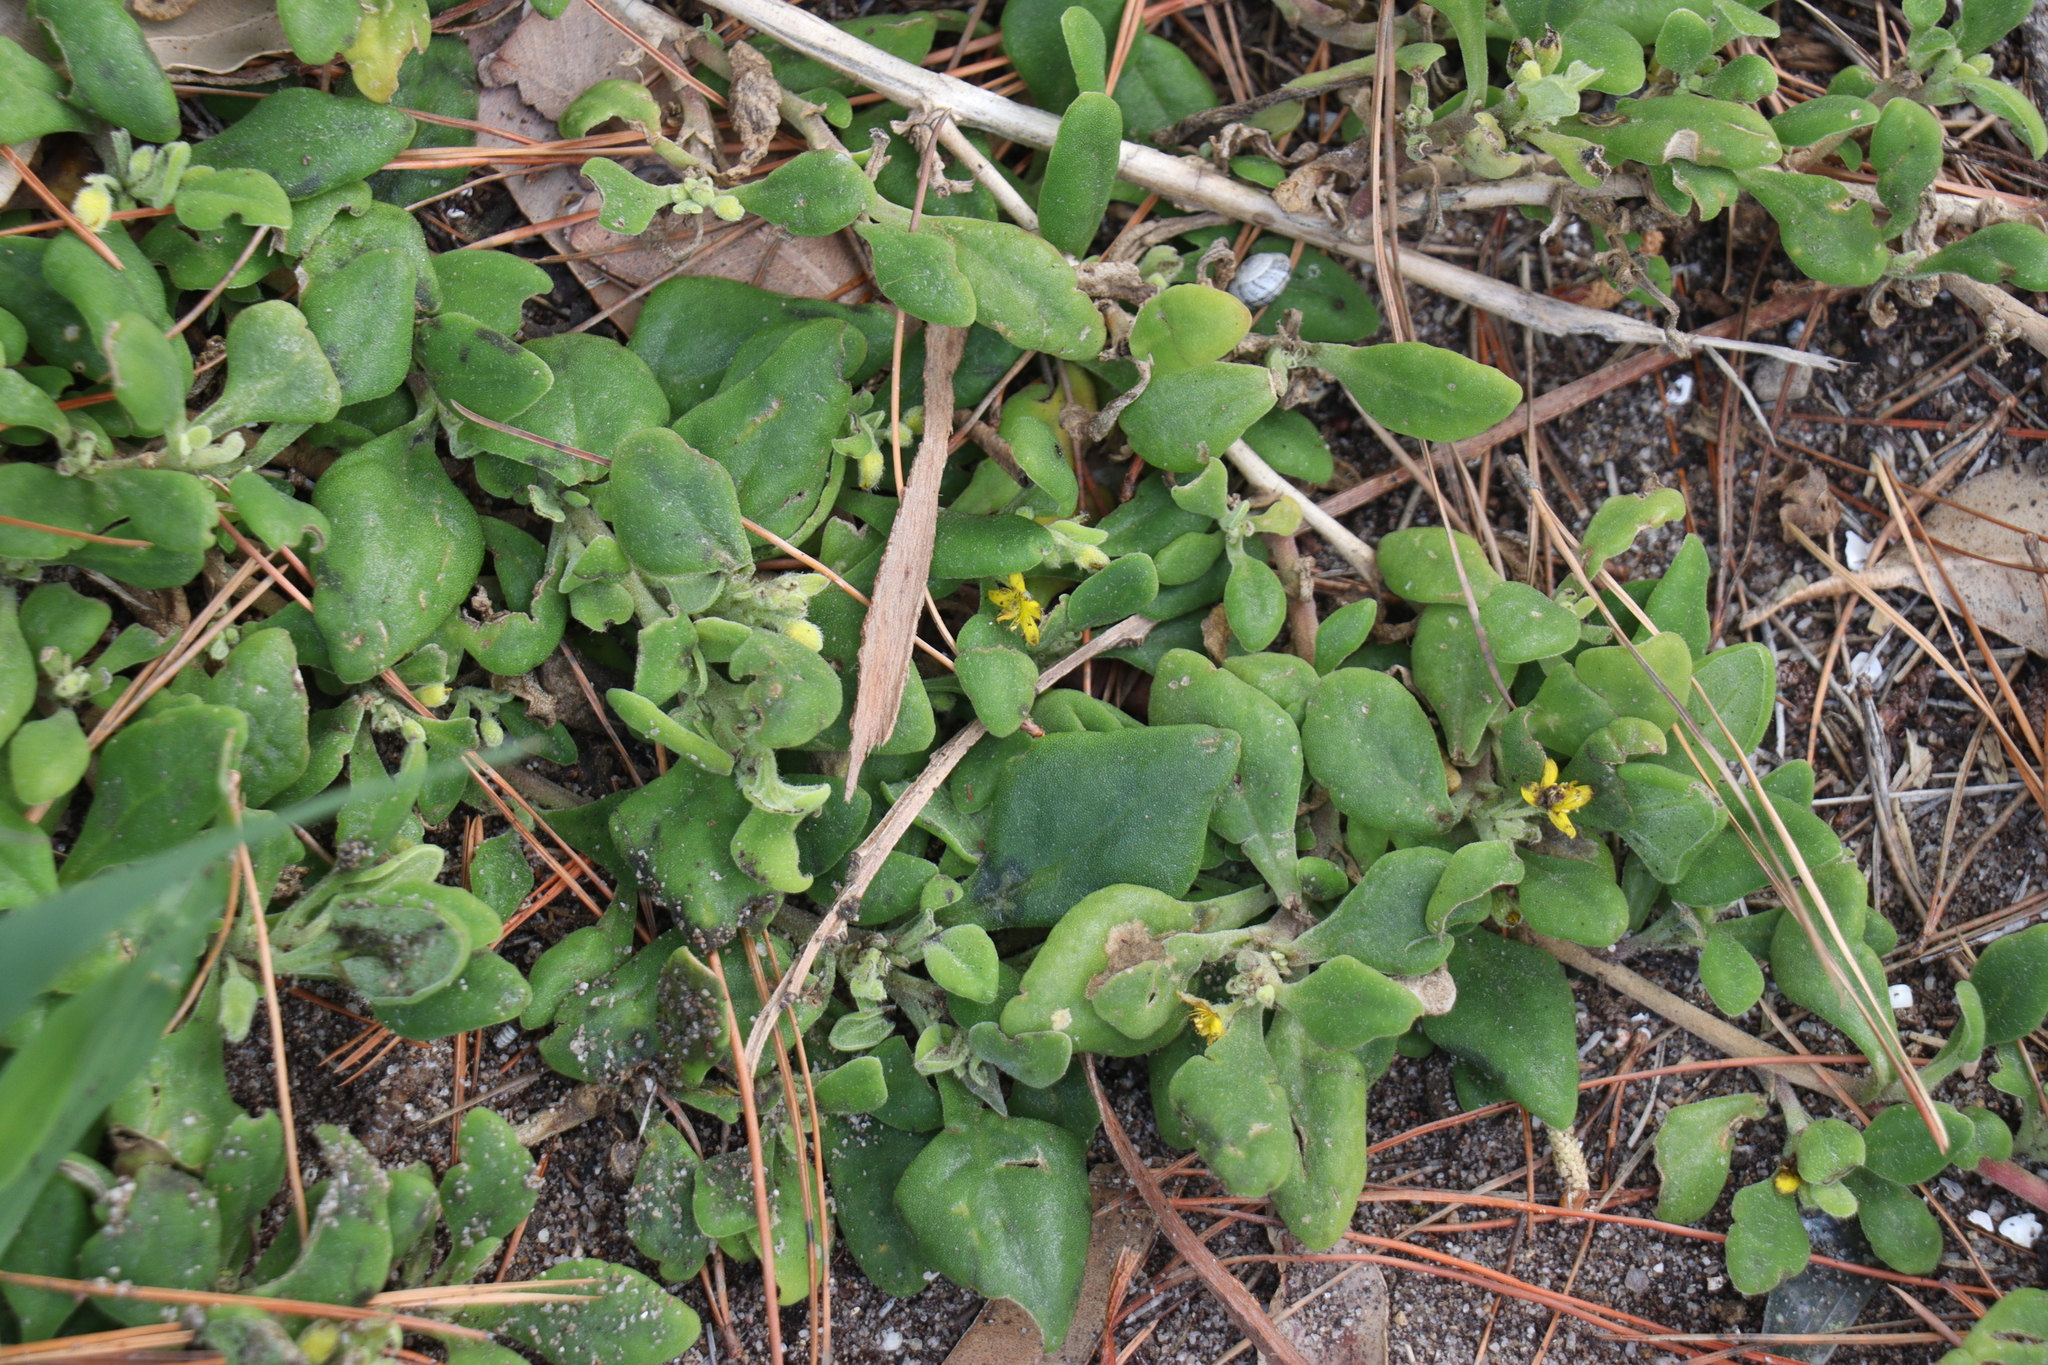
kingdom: Plantae
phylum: Tracheophyta
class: Magnoliopsida
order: Caryophyllales
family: Aizoaceae
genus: Tetragonia
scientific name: Tetragonia implexicoma
